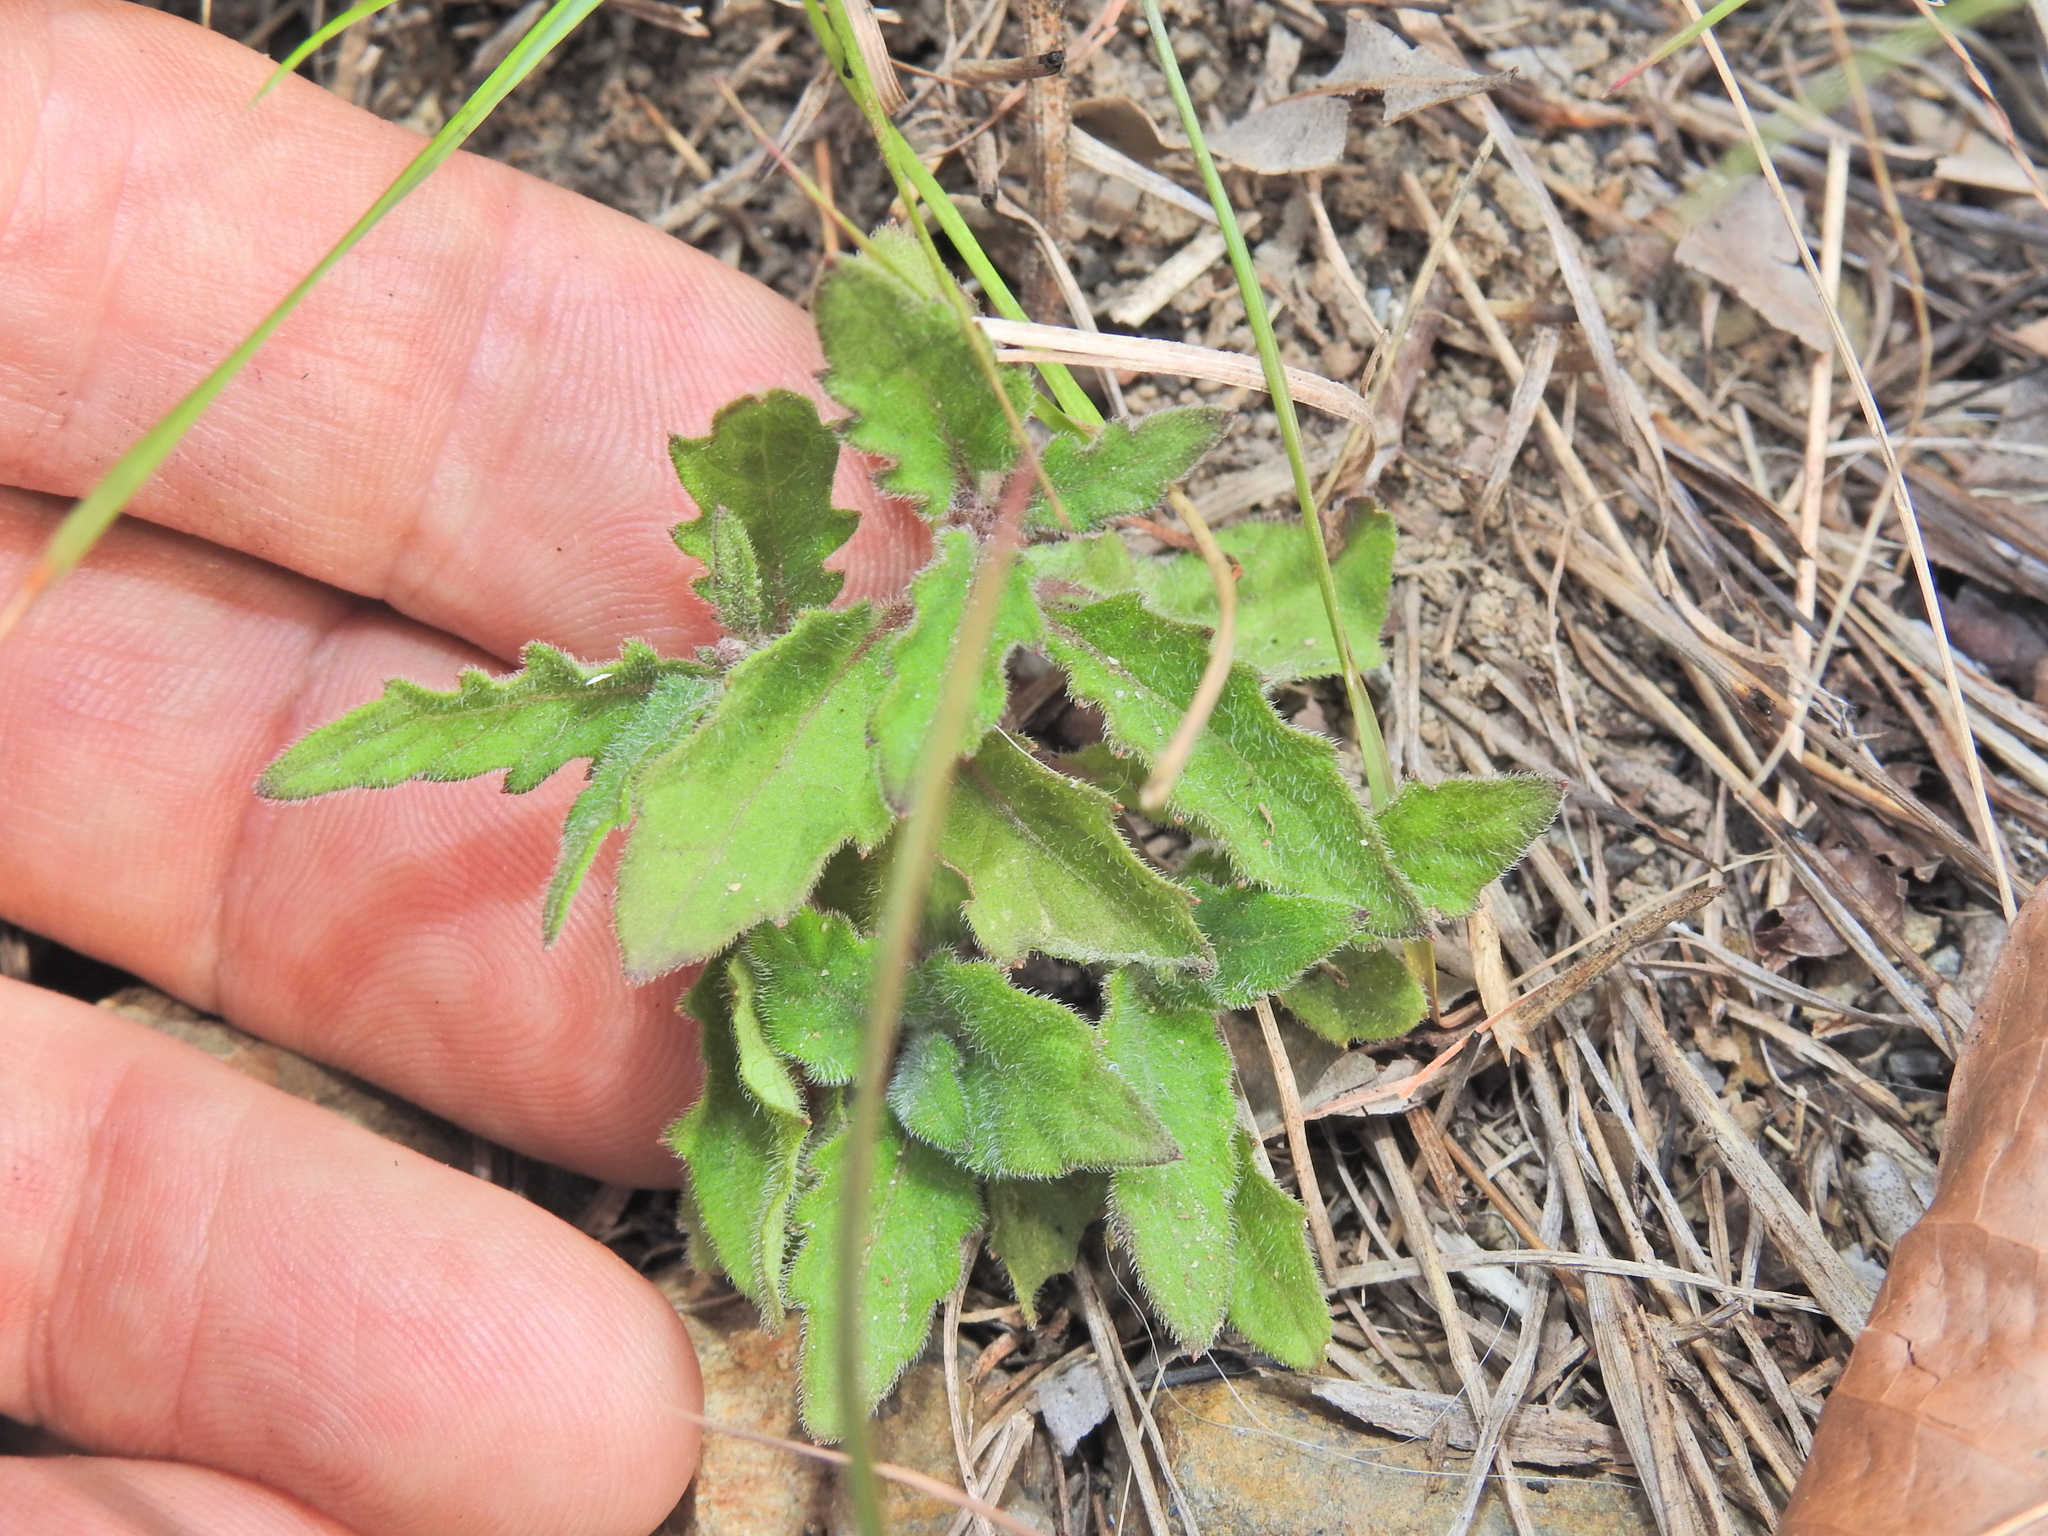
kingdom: Plantae
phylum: Tracheophyta
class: Magnoliopsida
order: Asterales
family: Asteraceae
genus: Cyanthillium
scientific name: Cyanthillium cinereum
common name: Little ironweed
